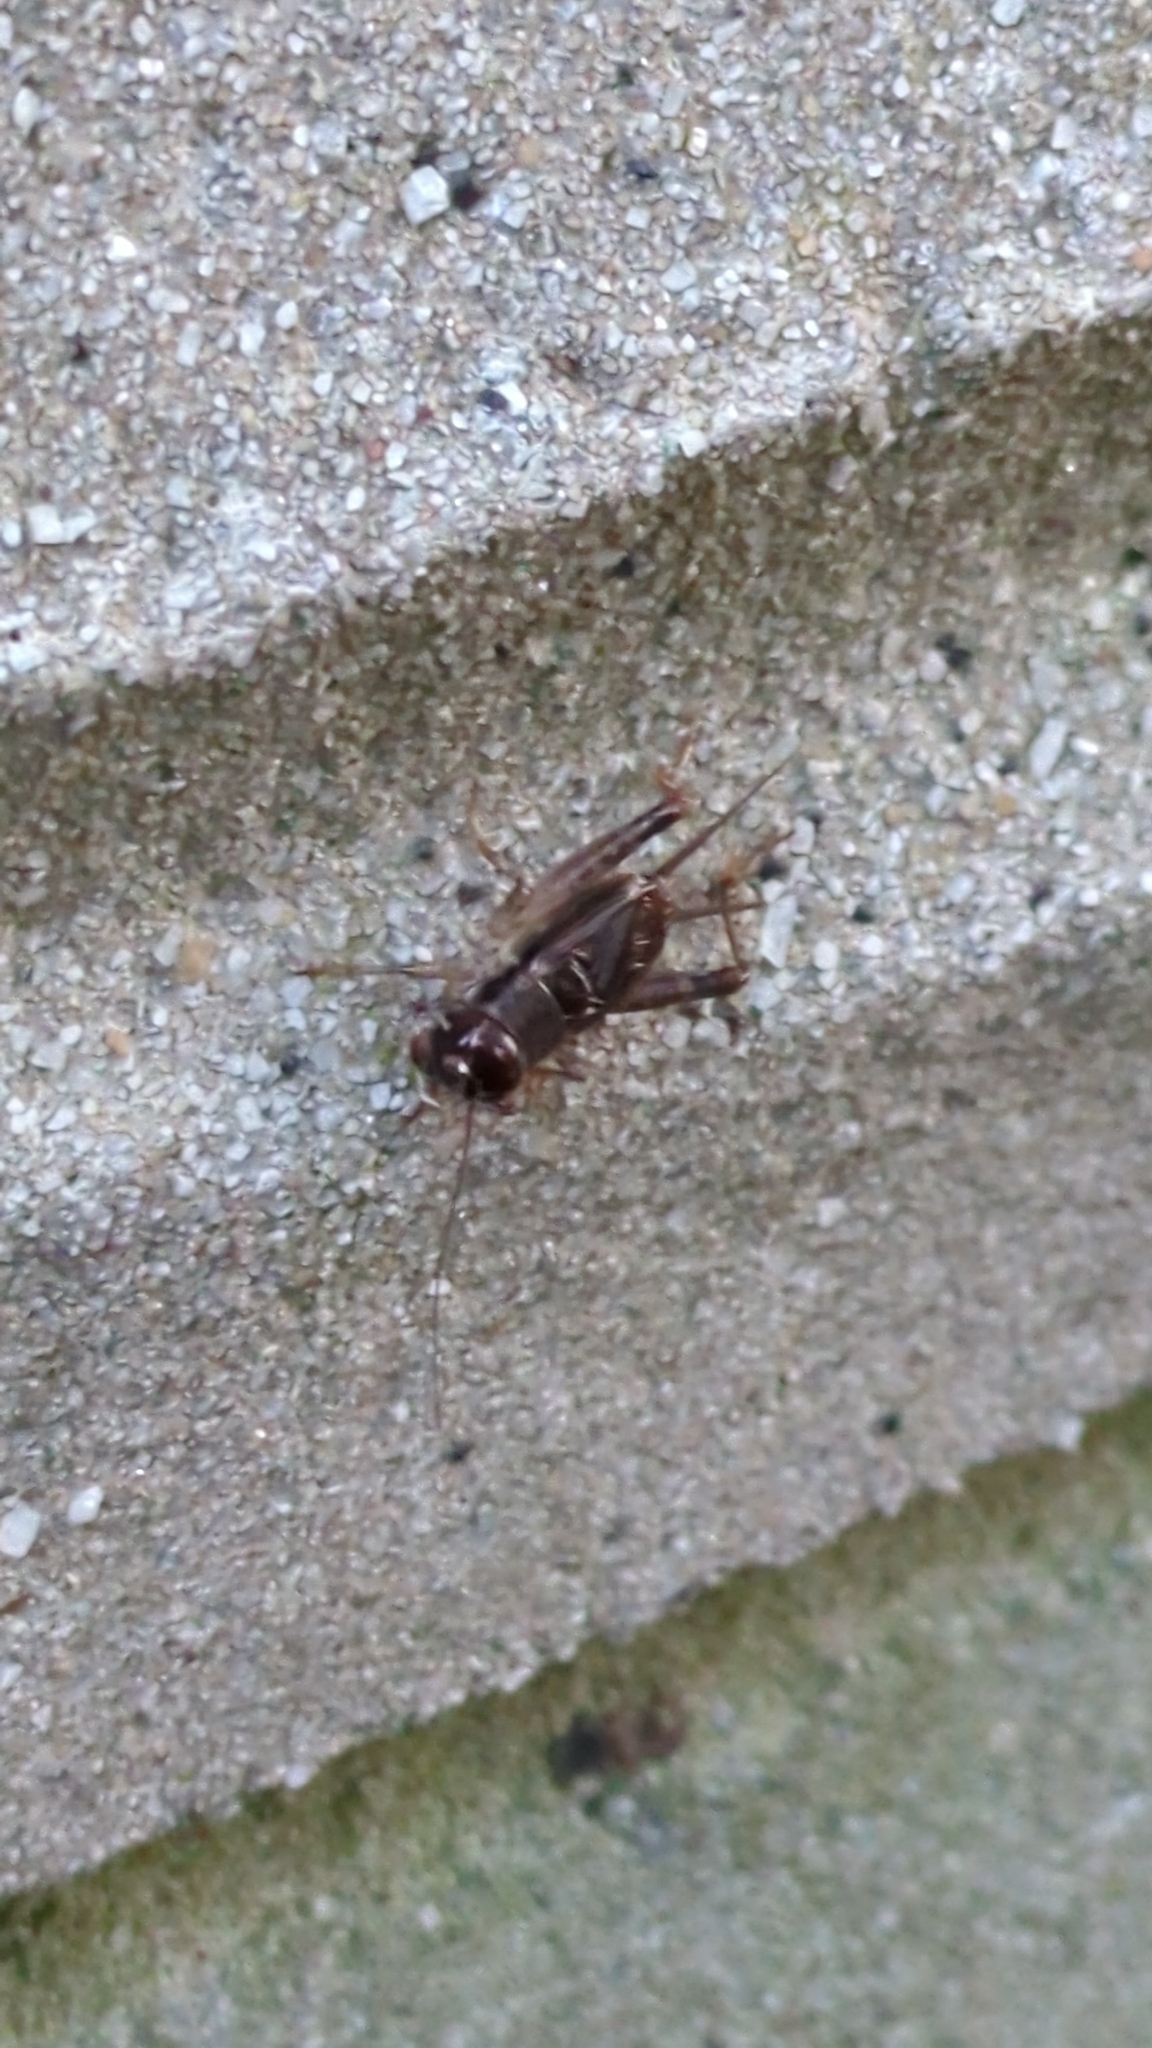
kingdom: Animalia
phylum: Arthropoda
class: Insecta
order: Orthoptera
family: Gryllidae
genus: Velarifictorus
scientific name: Velarifictorus micado
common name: Japanese burrowing cricket
